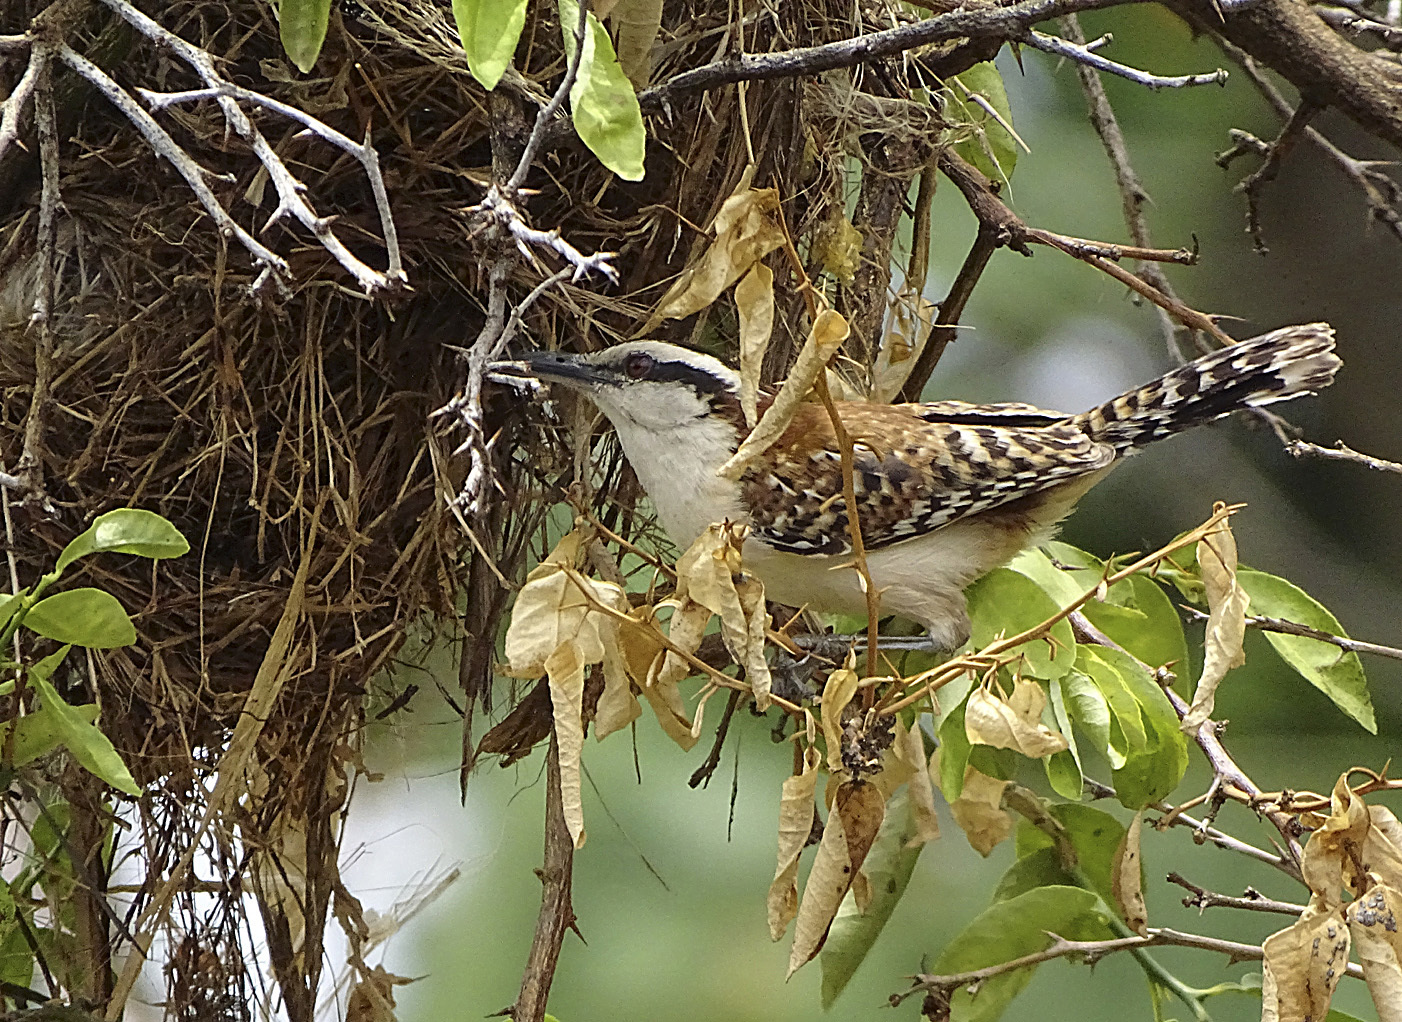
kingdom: Animalia
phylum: Chordata
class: Aves
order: Passeriformes
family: Troglodytidae
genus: Campylorhynchus
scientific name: Campylorhynchus rufinucha
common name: Rufous-naped wren
